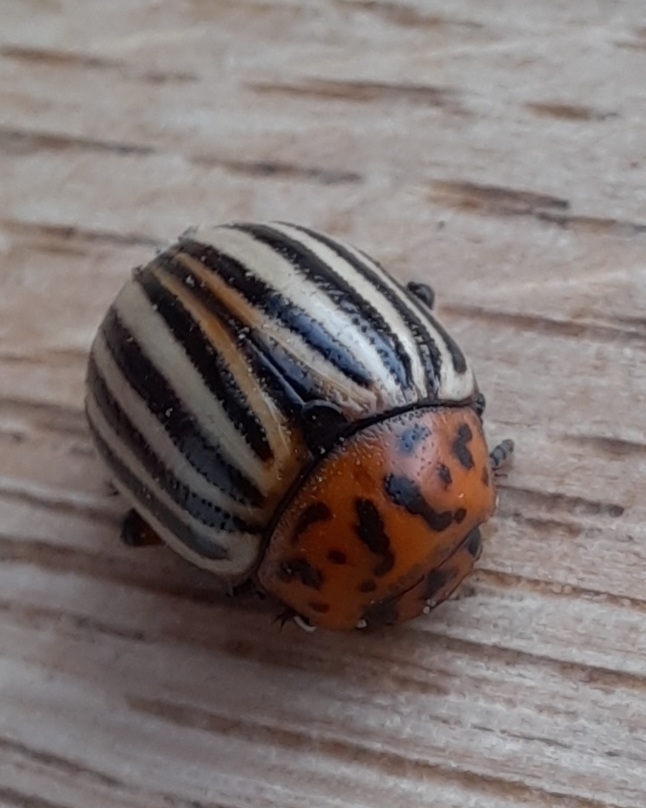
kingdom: Animalia
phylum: Arthropoda
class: Insecta
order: Coleoptera
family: Chrysomelidae
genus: Leptinotarsa
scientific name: Leptinotarsa decemlineata
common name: Colorado potato beetle
